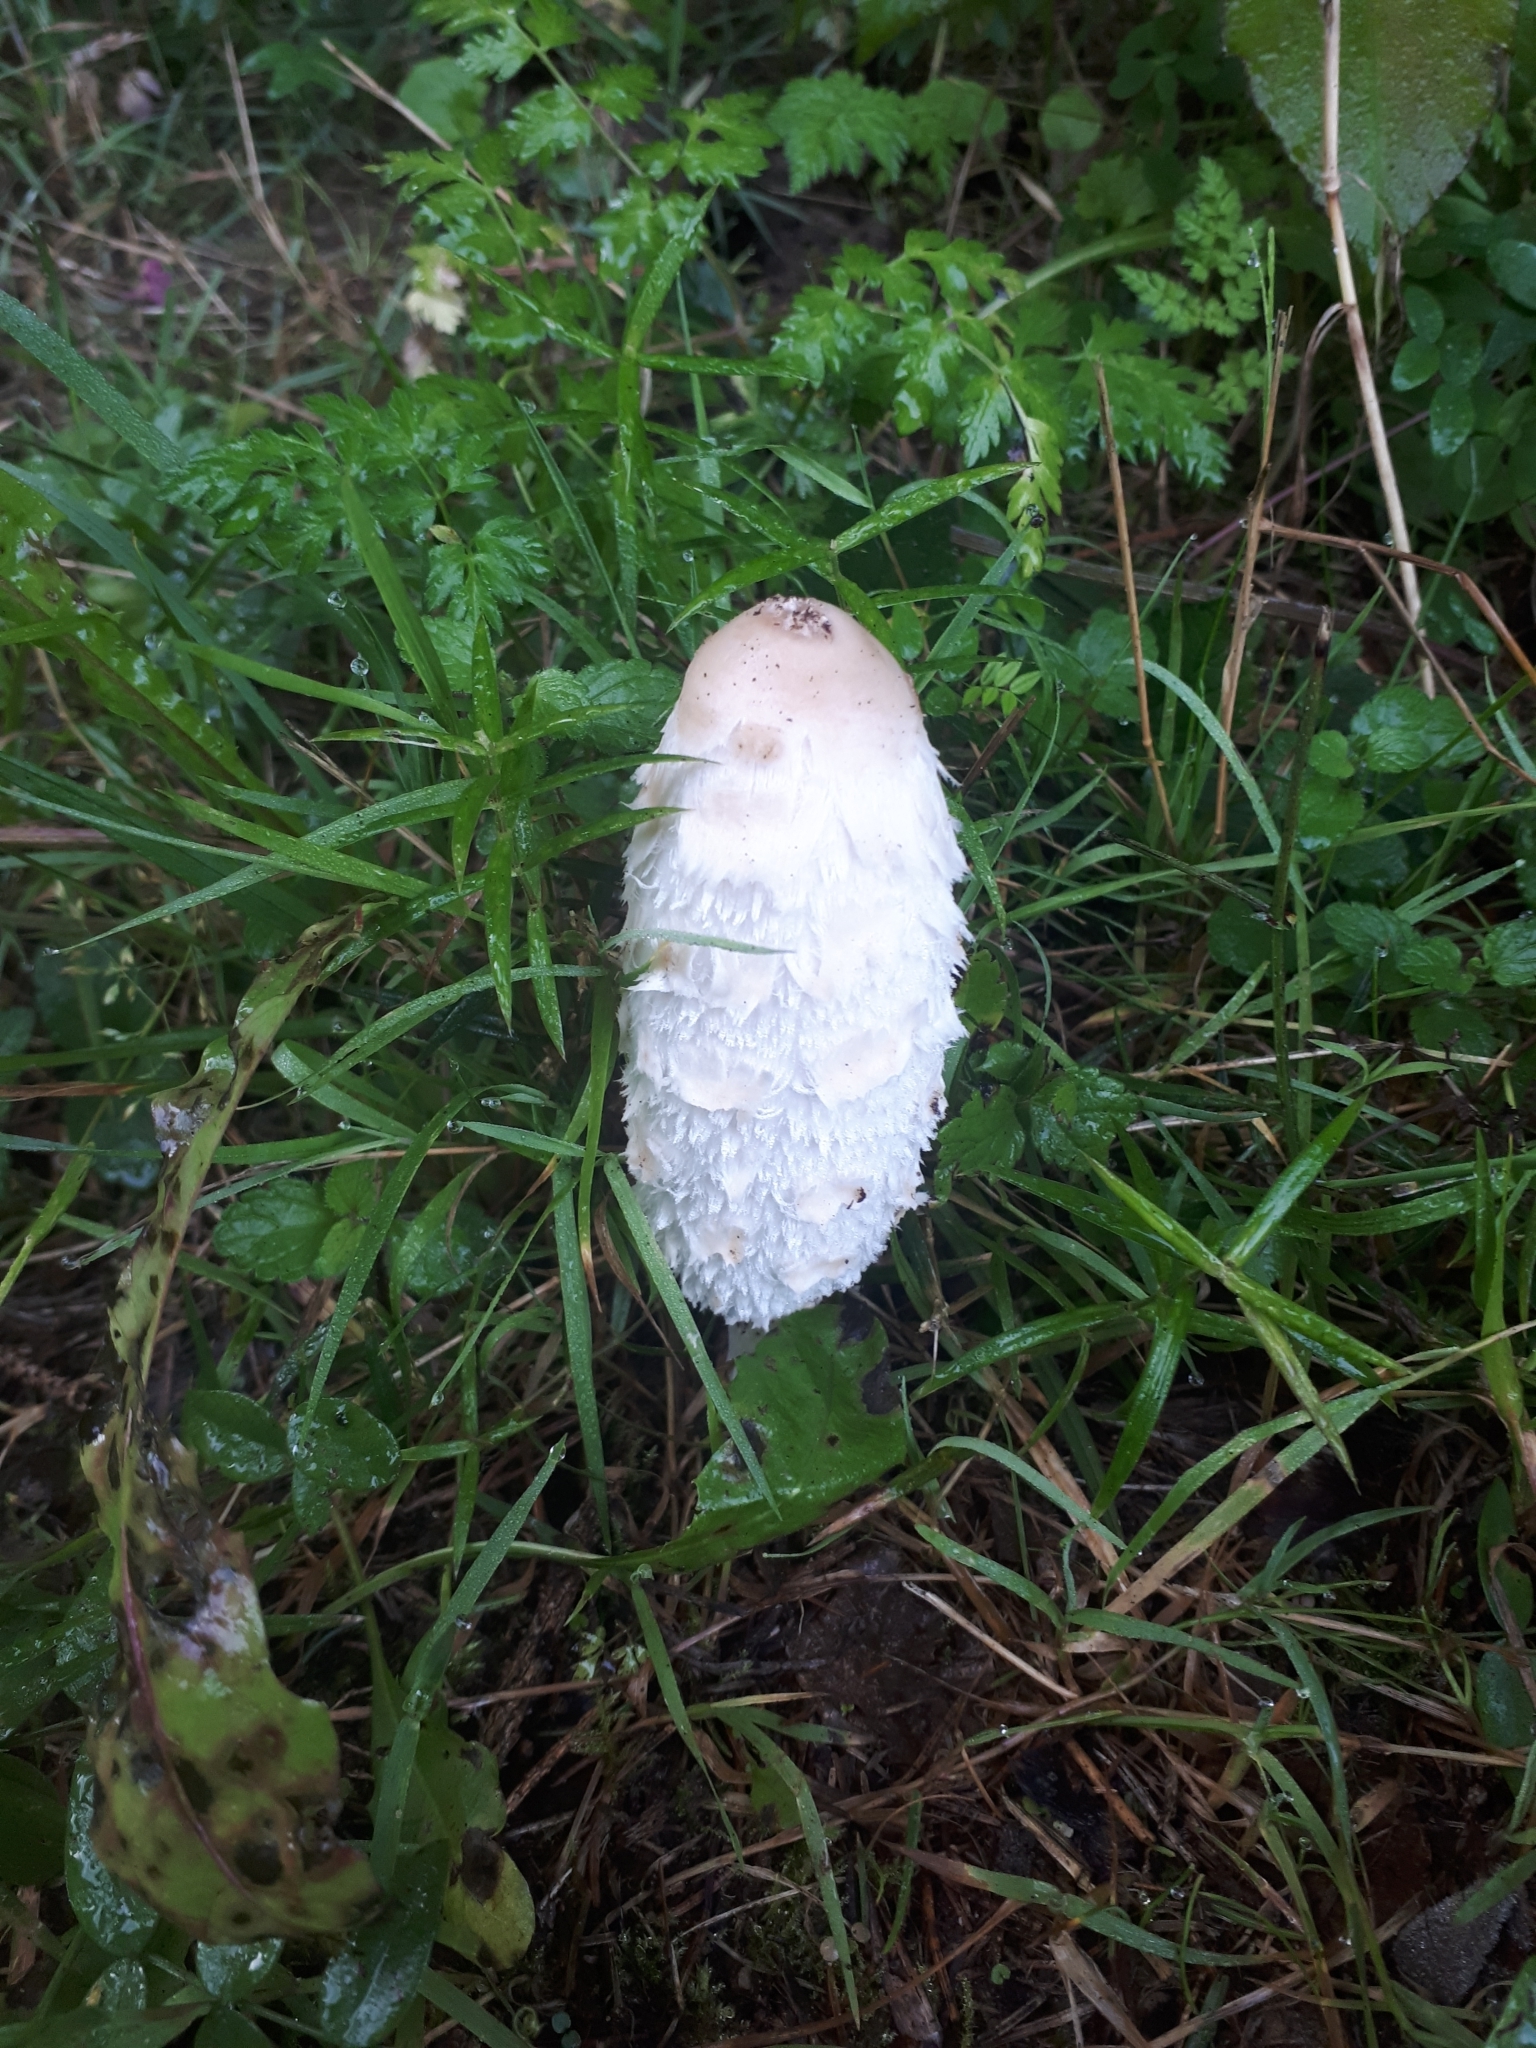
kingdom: Fungi
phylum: Basidiomycota
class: Agaricomycetes
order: Agaricales
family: Agaricaceae
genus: Coprinus
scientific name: Coprinus comatus
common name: Lawyer's wig
